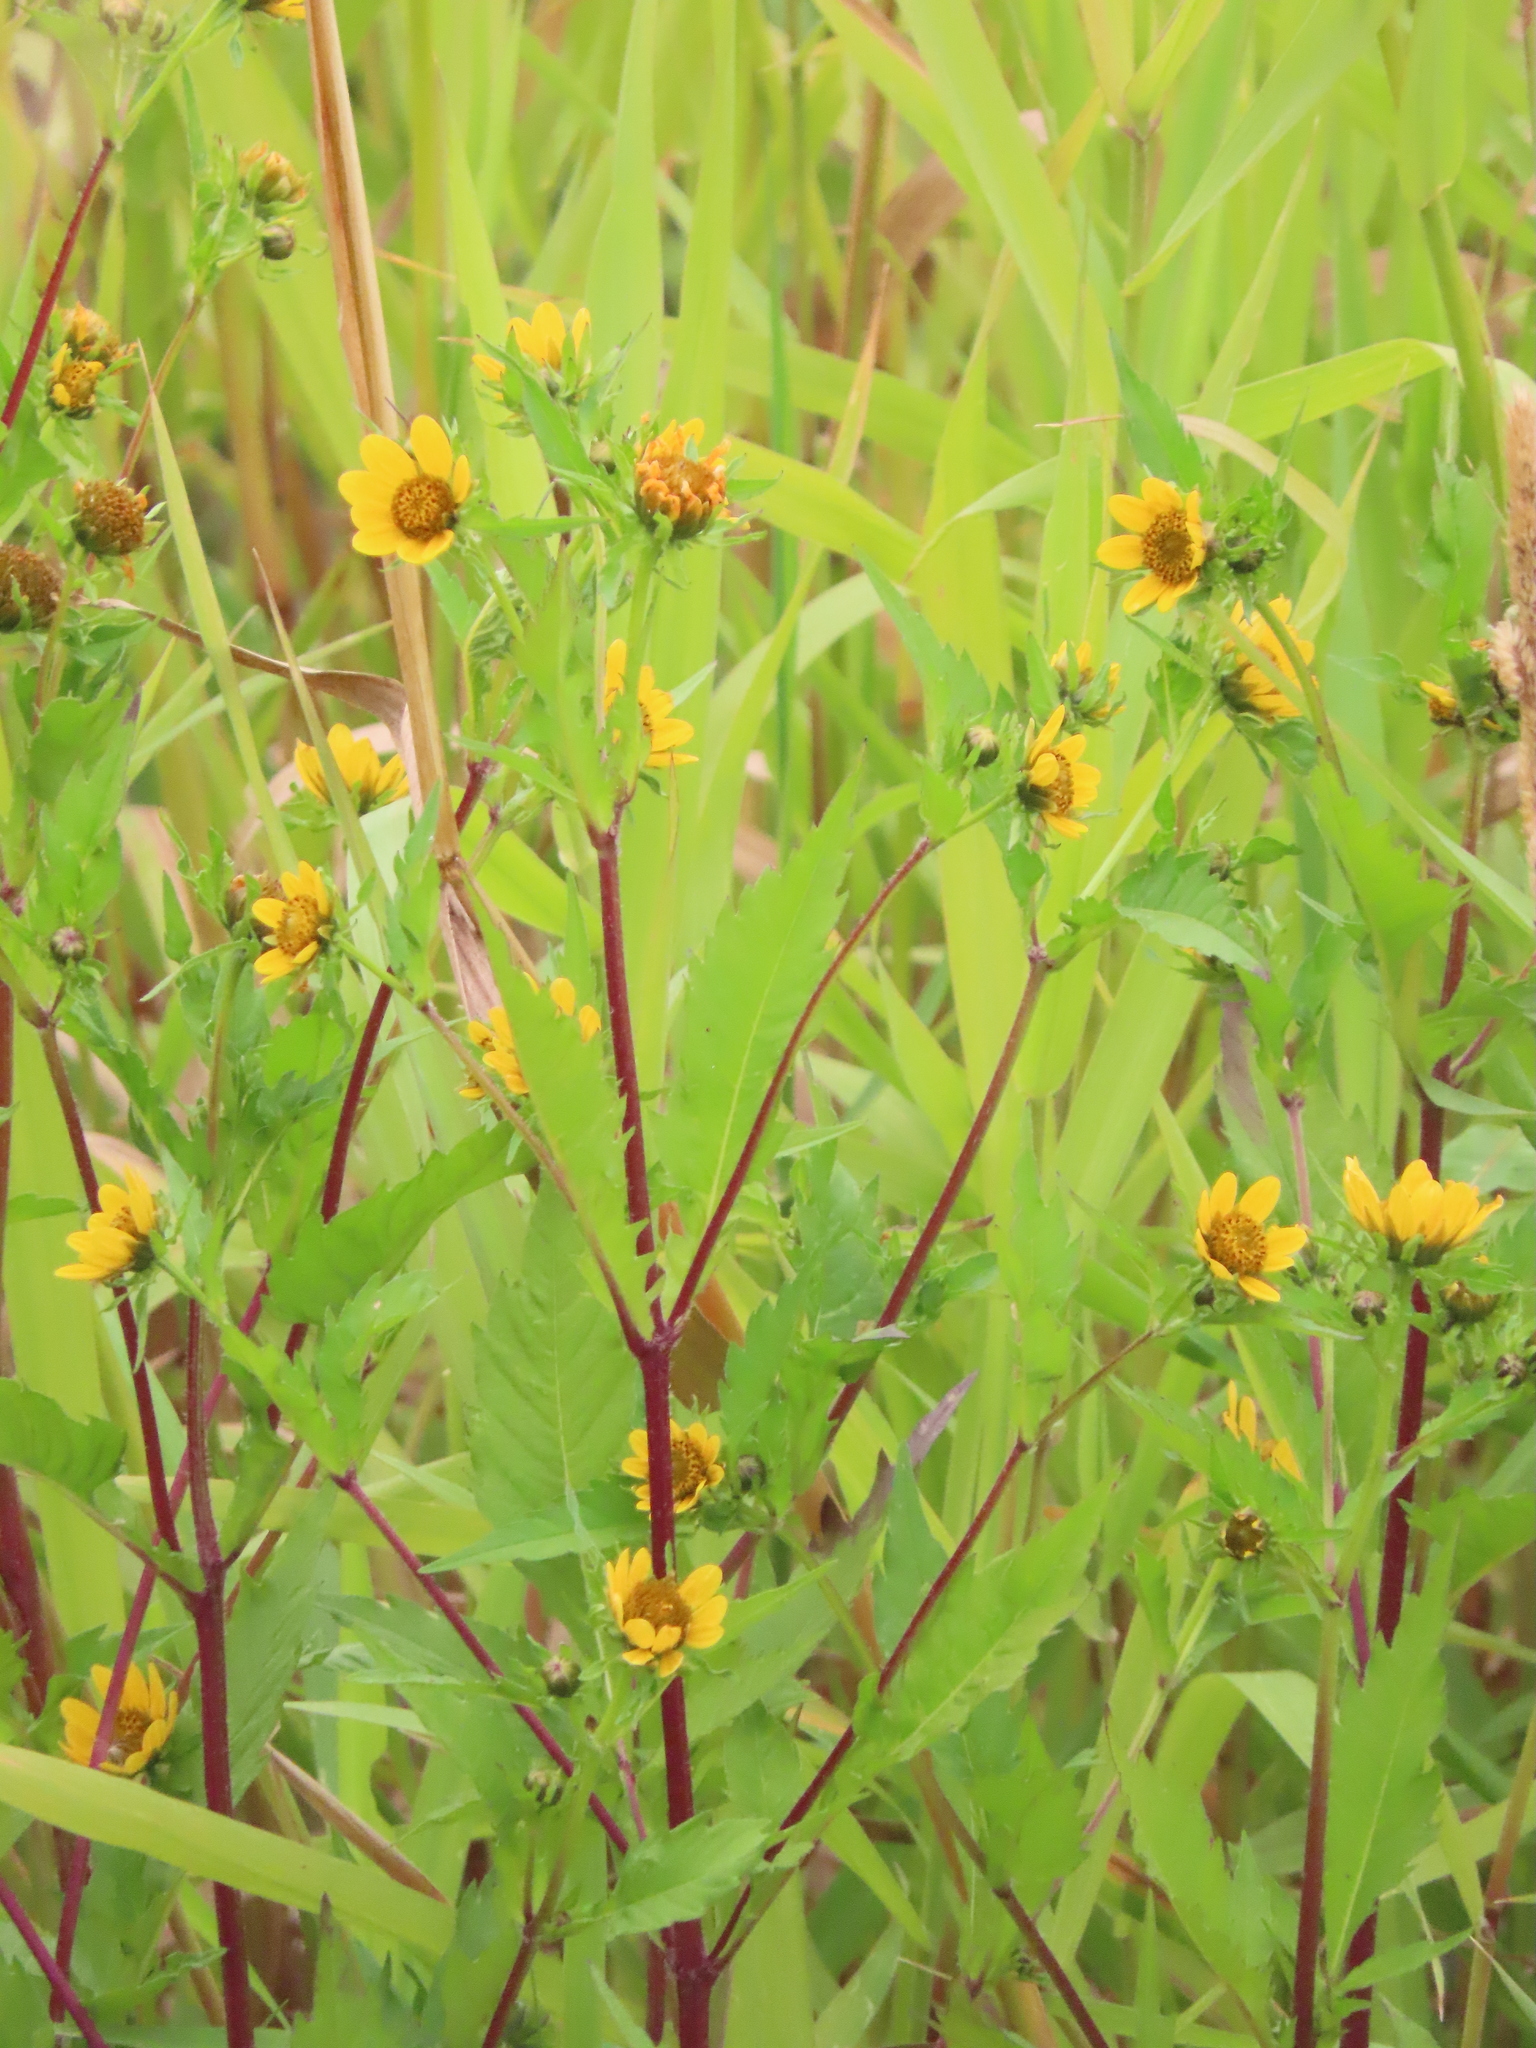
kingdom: Plantae
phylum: Tracheophyta
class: Magnoliopsida
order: Asterales
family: Asteraceae
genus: Bidens
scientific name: Bidens amplissima
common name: Vancouver island beggarticks
